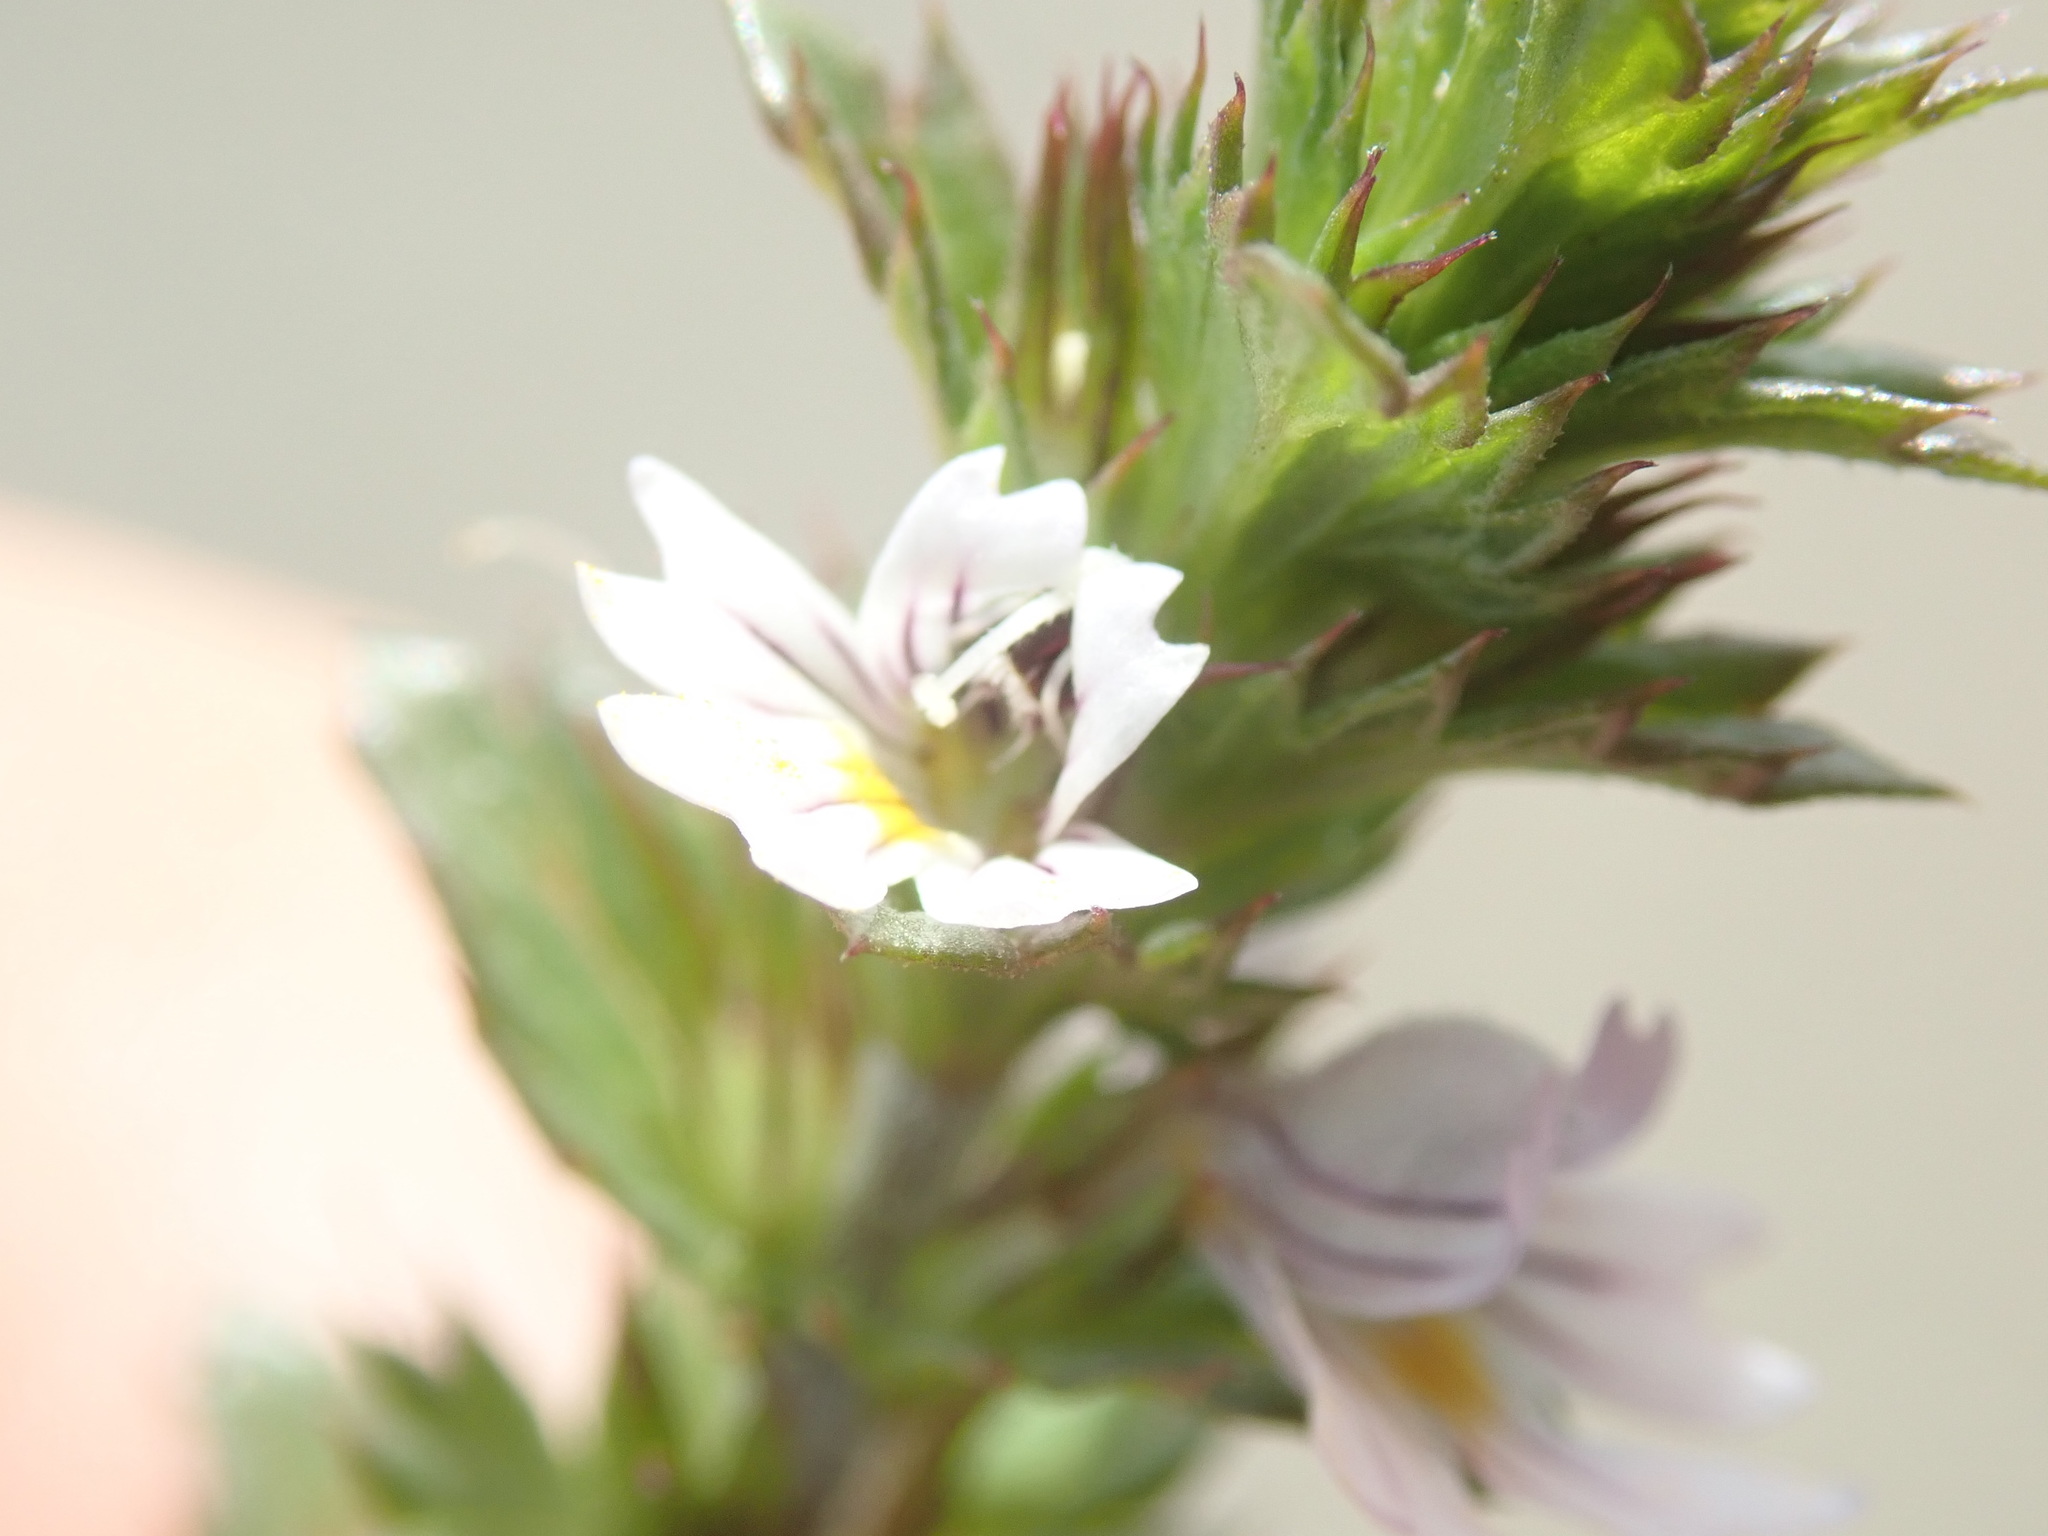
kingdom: Plantae
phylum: Tracheophyta
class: Magnoliopsida
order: Lamiales
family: Orobanchaceae
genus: Euphrasia
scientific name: Euphrasia nemorosa
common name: Common eyebright
